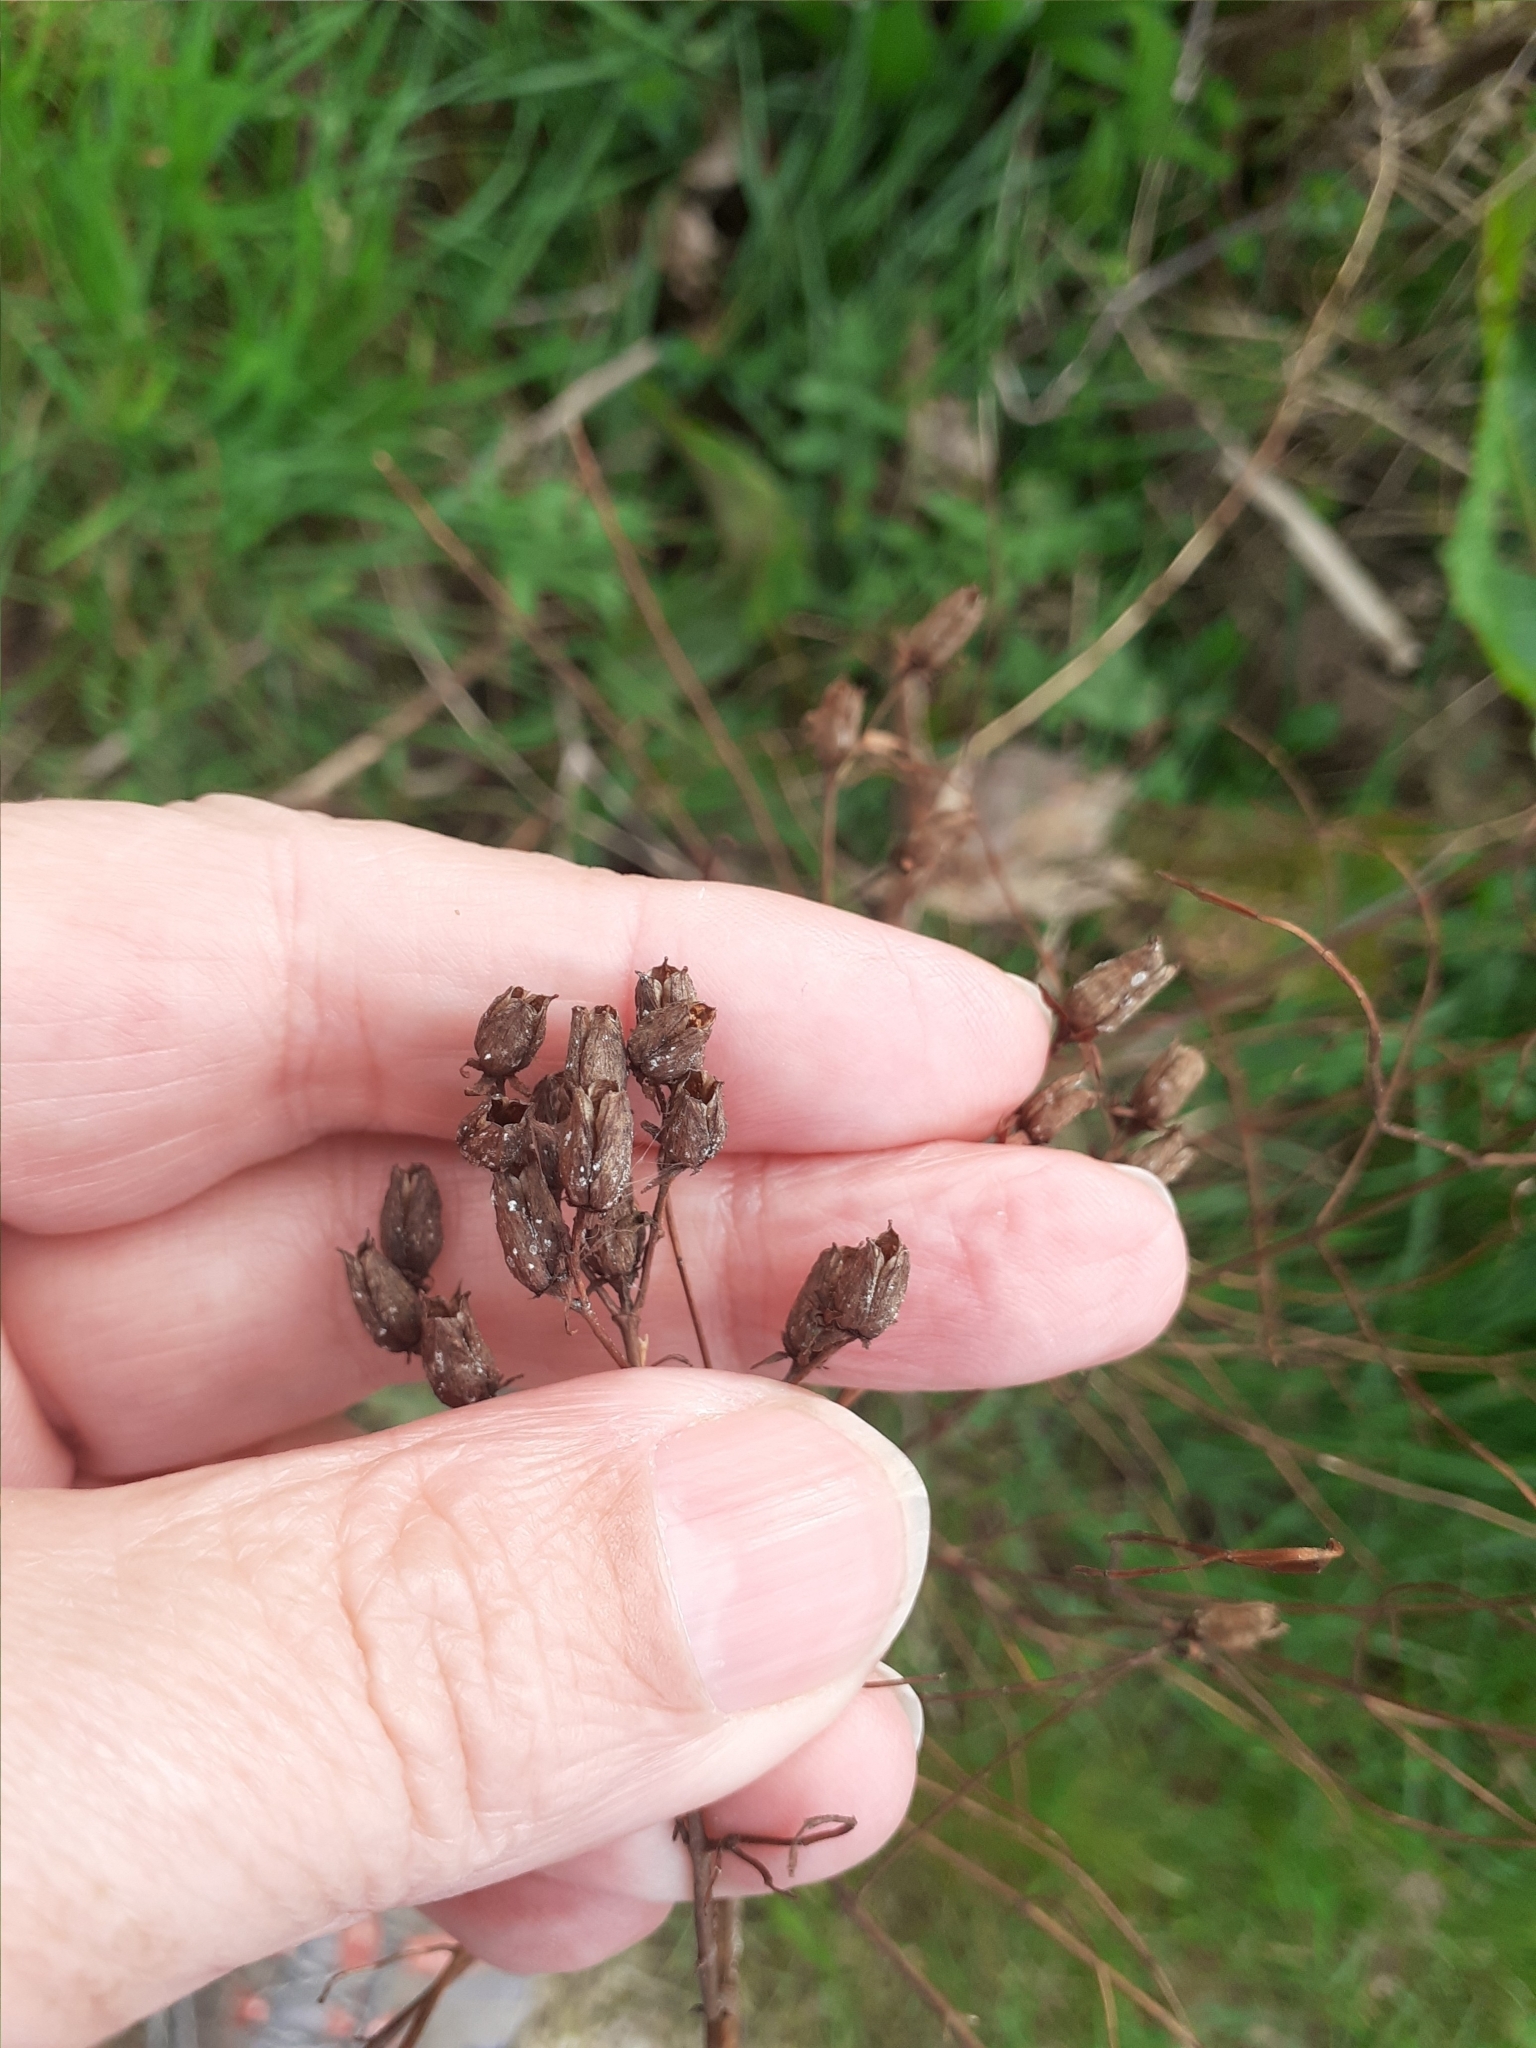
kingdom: Plantae
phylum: Tracheophyta
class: Magnoliopsida
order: Malpighiales
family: Hypericaceae
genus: Hypericum
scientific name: Hypericum perforatum
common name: Common st. johnswort
